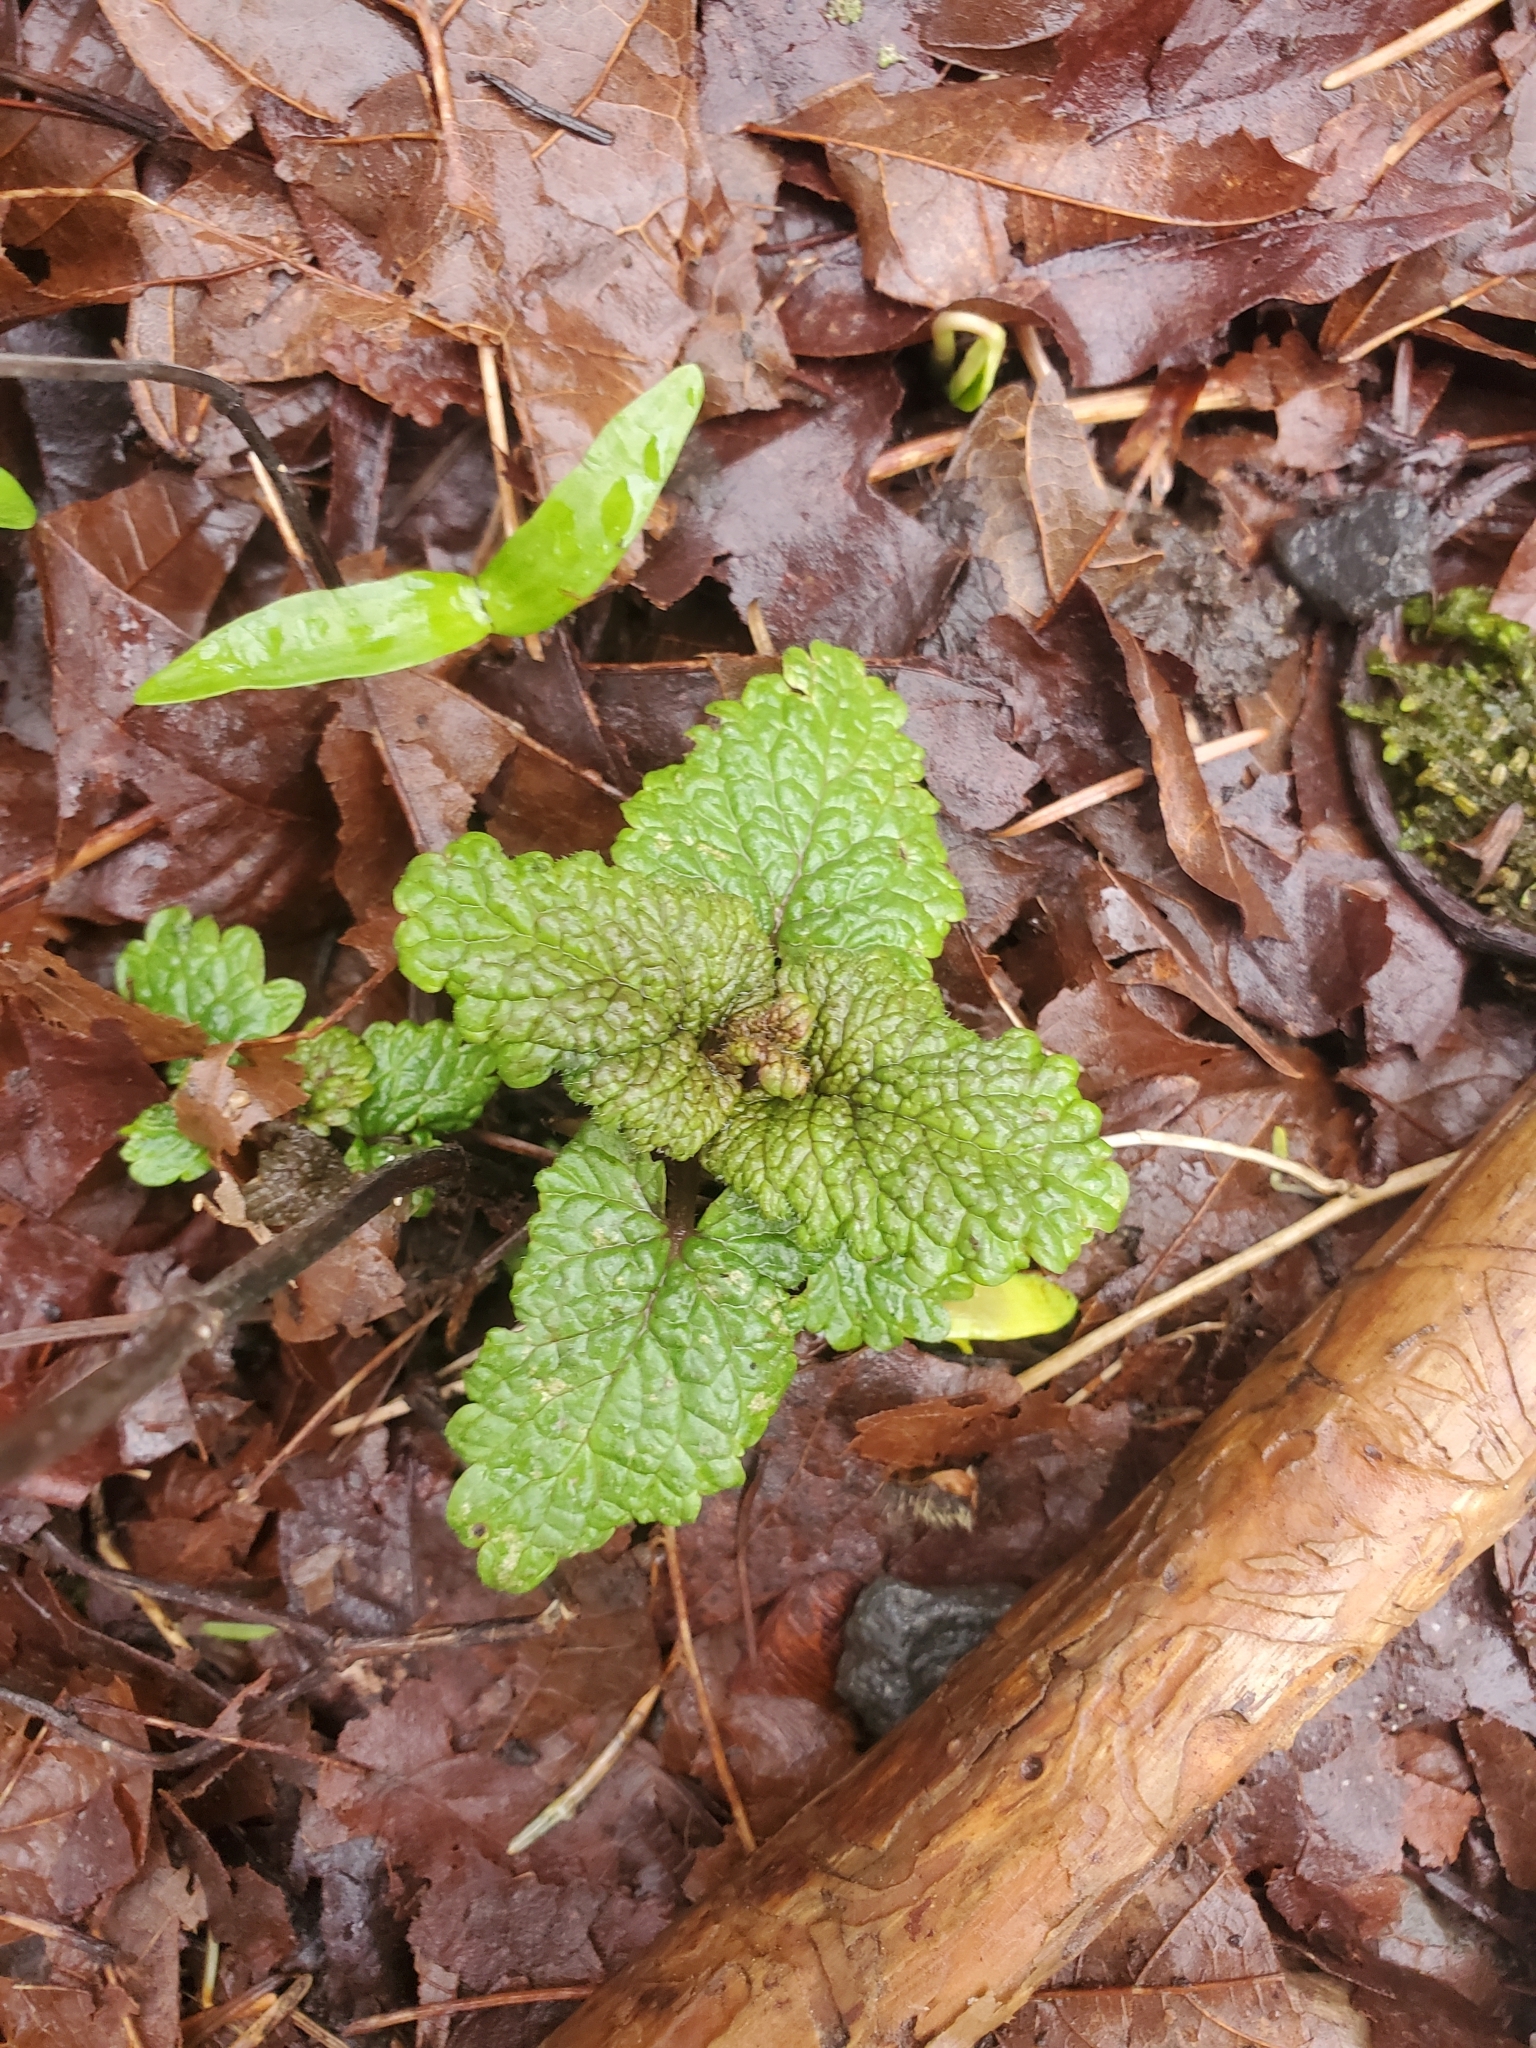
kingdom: Plantae
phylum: Tracheophyta
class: Magnoliopsida
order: Lamiales
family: Lamiaceae
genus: Melissa
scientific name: Melissa officinalis
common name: Balm
